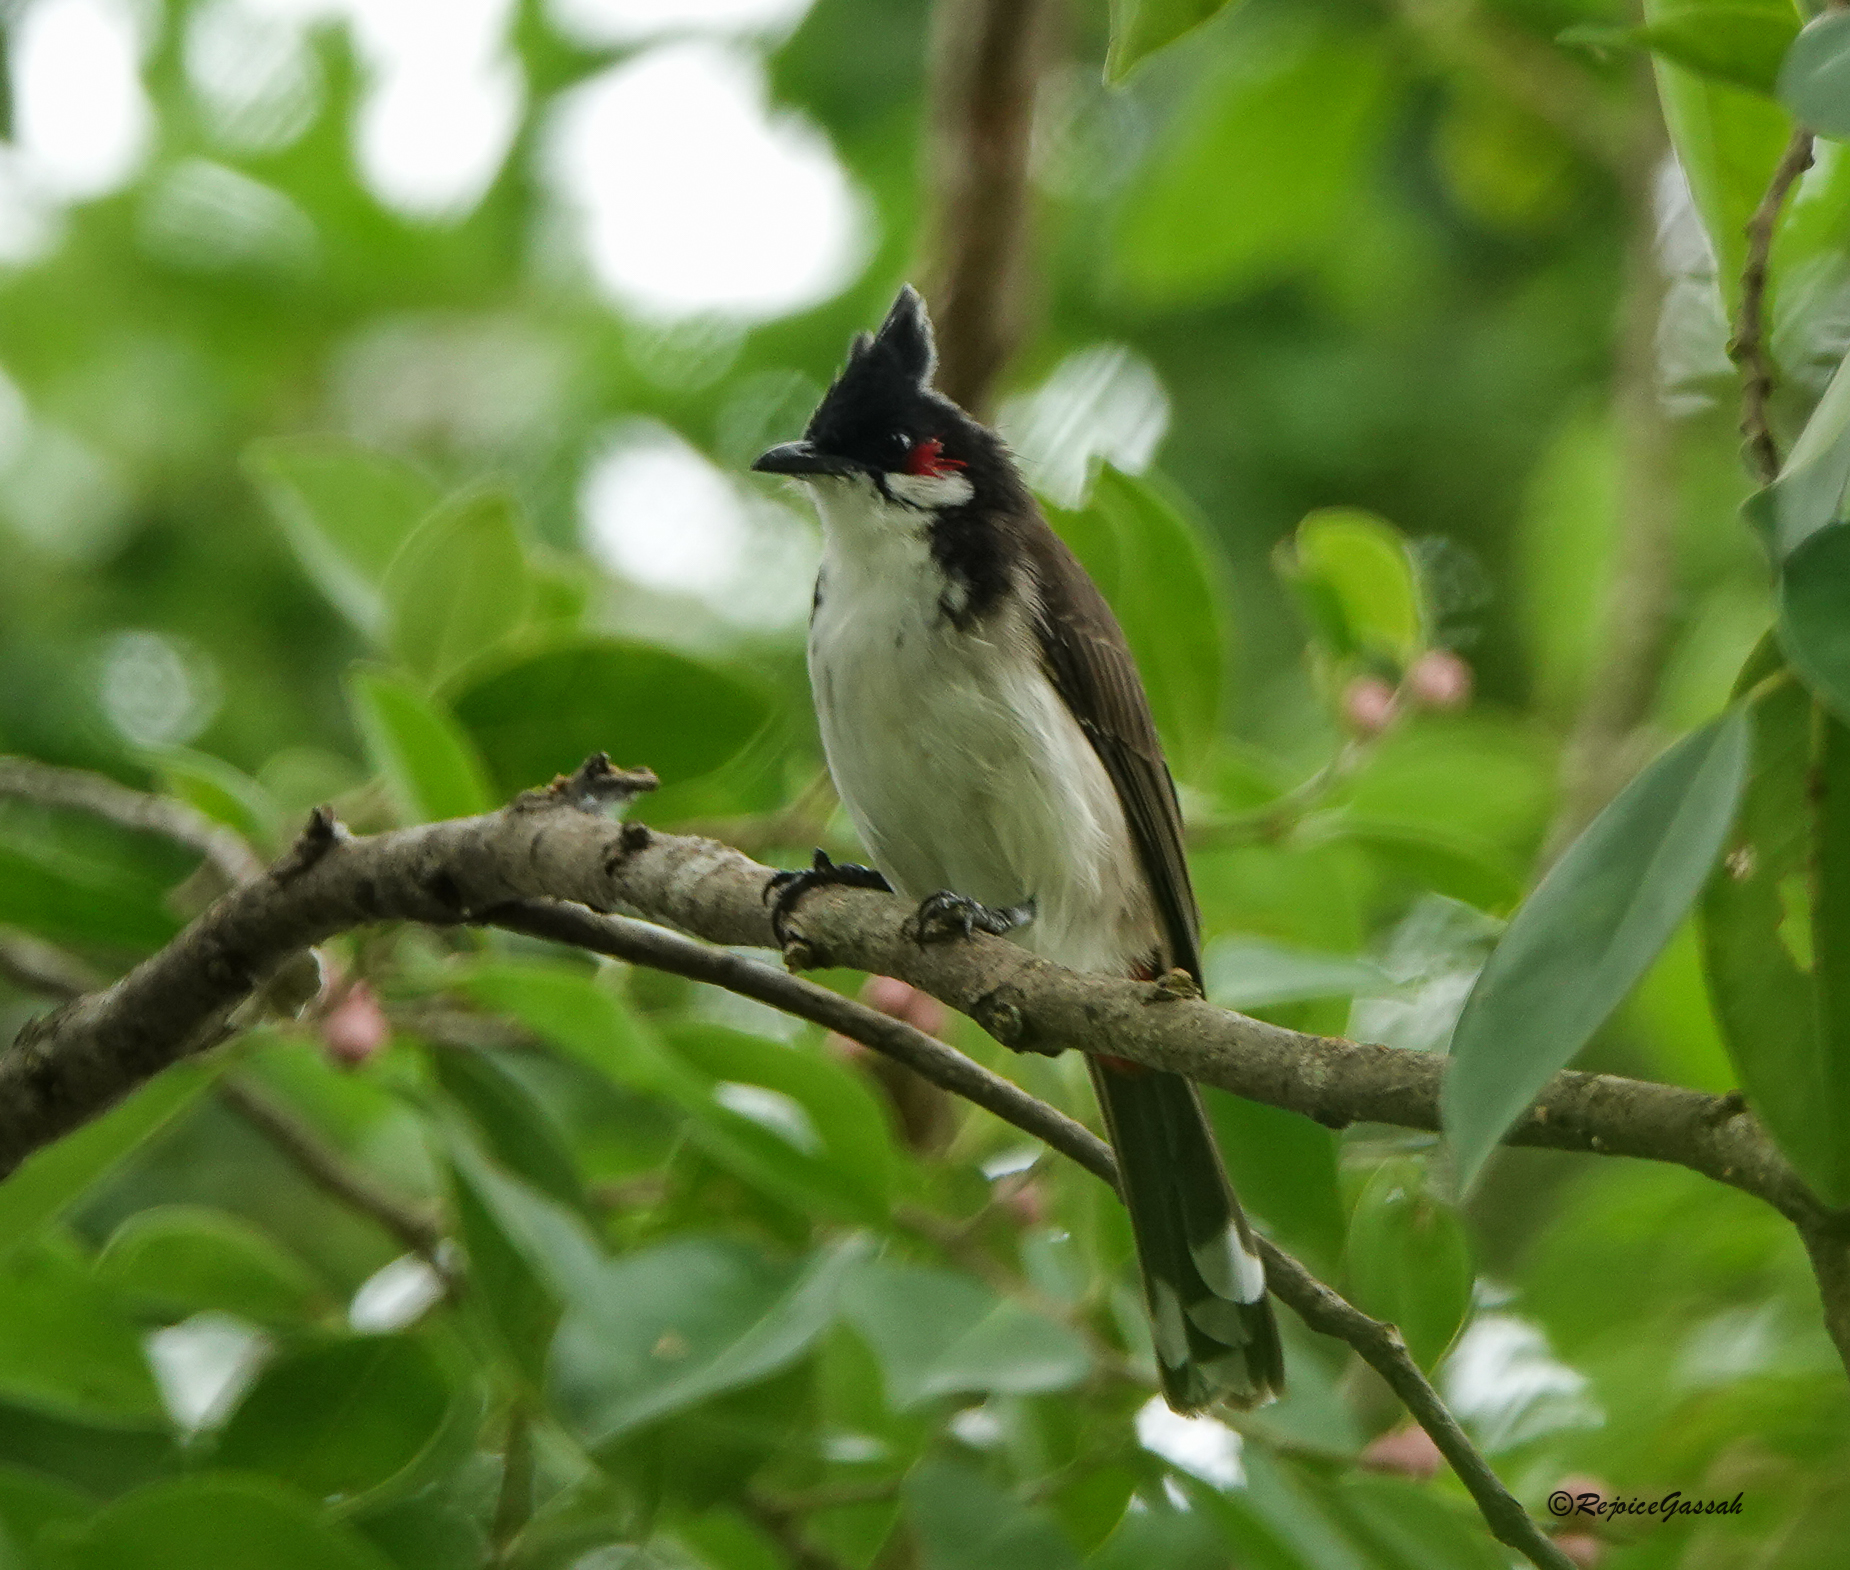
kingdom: Animalia
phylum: Chordata
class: Aves
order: Passeriformes
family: Pycnonotidae
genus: Pycnonotus
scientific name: Pycnonotus jocosus
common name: Red-whiskered bulbul
